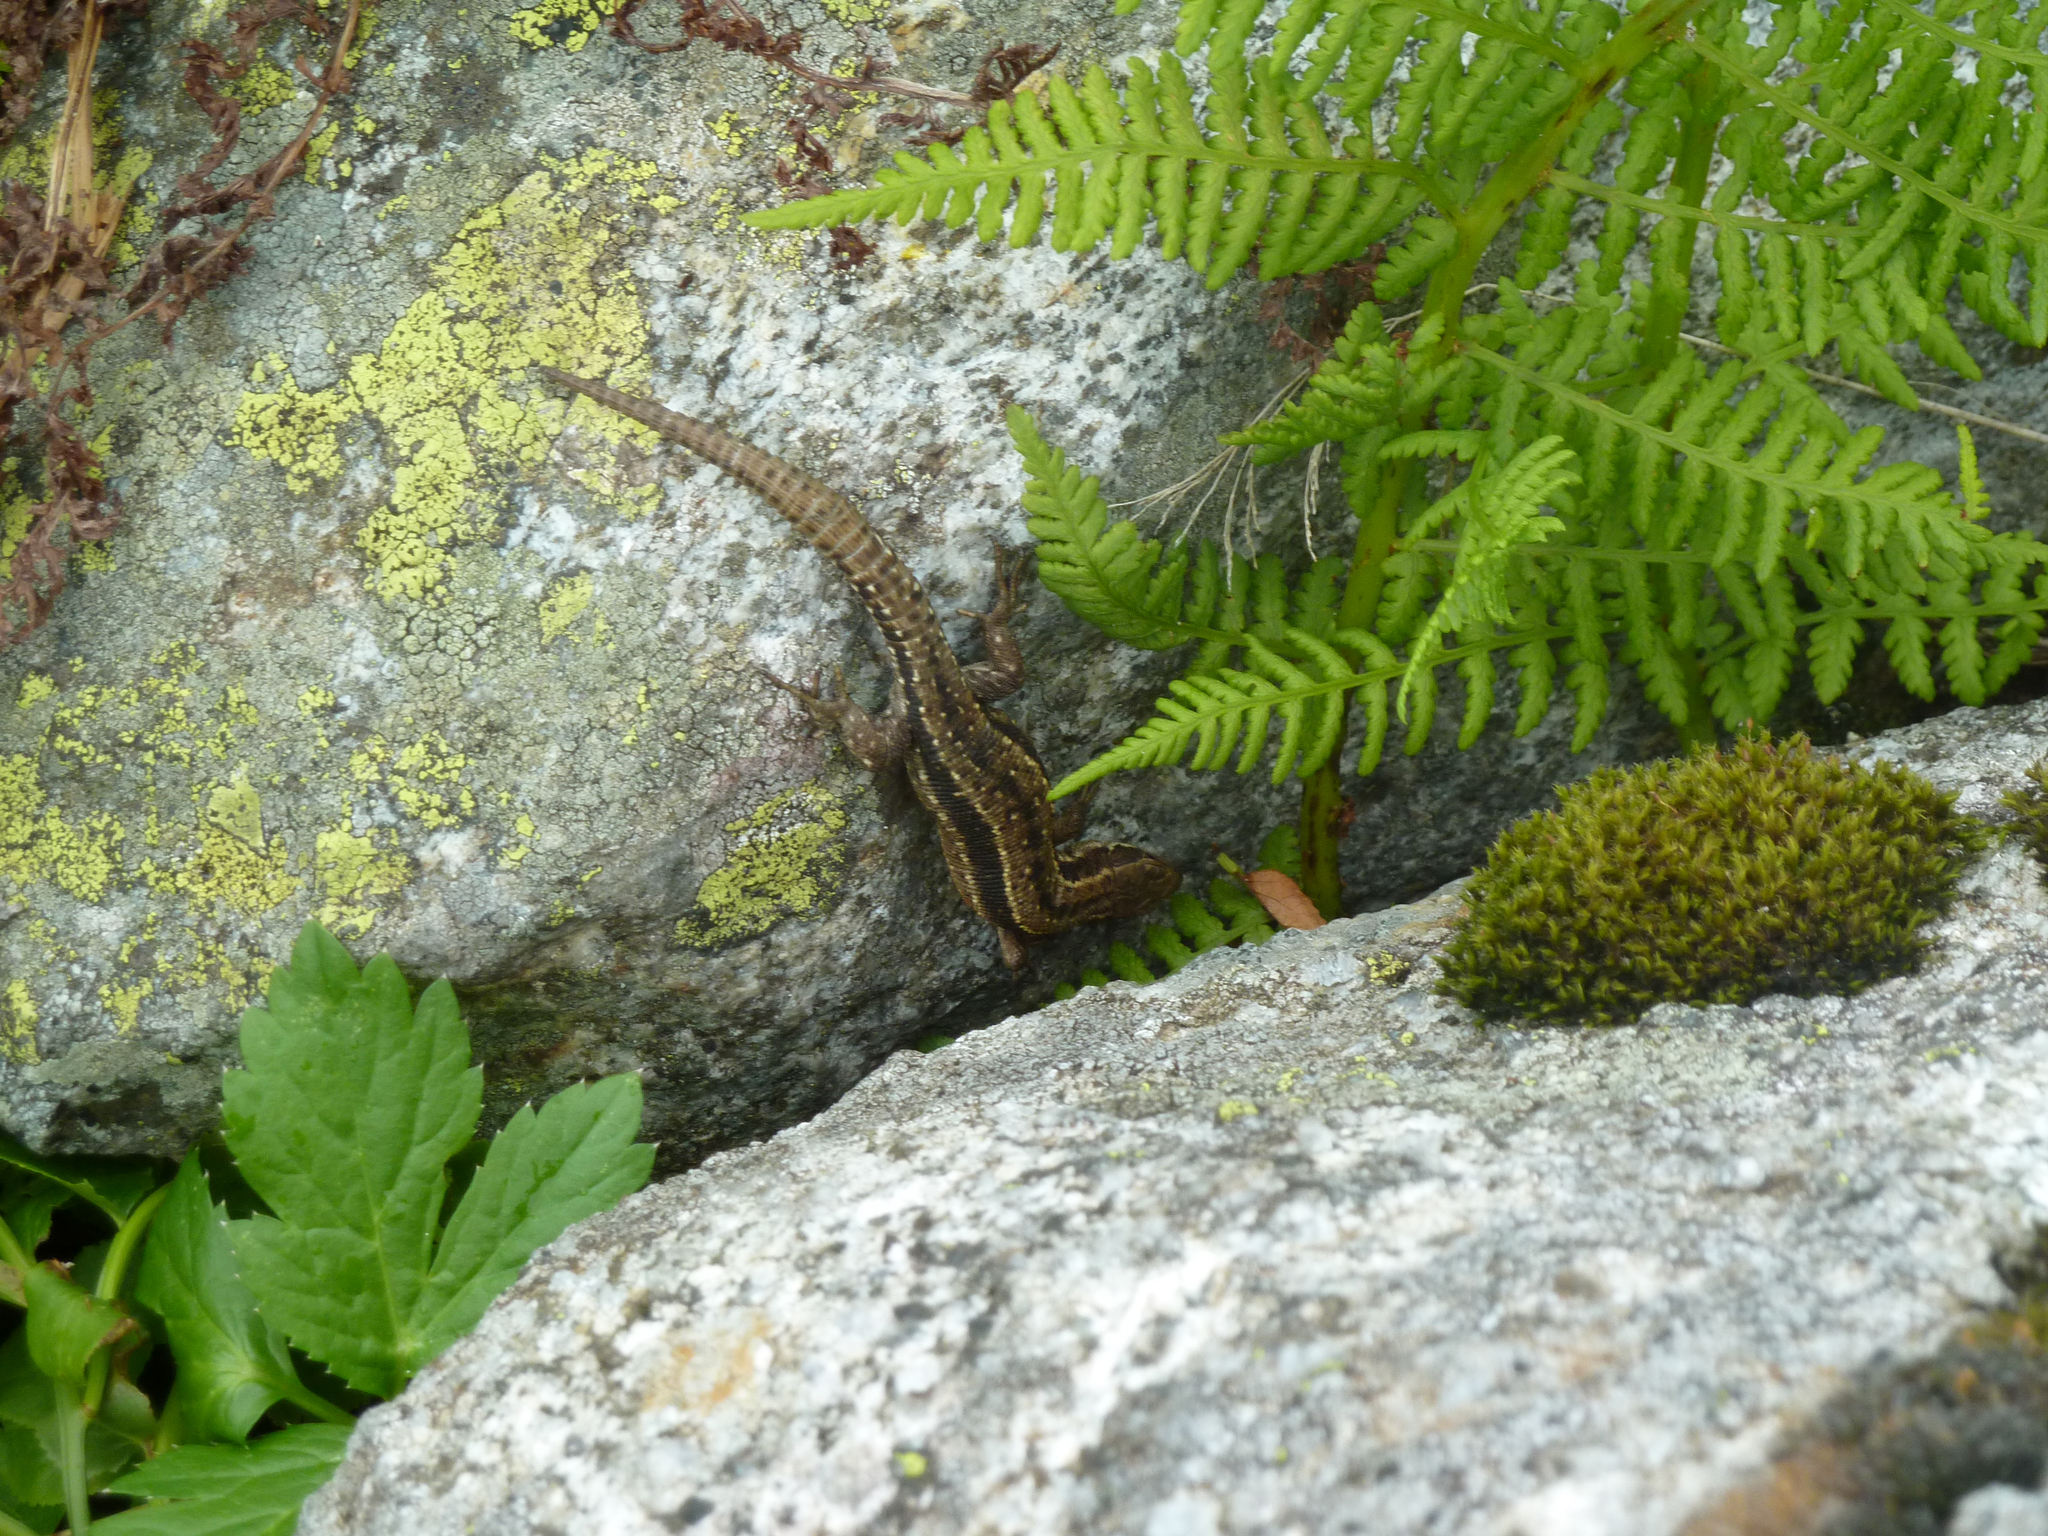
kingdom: Animalia
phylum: Chordata
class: Squamata
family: Lacertidae
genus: Zootoca
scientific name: Zootoca vivipara
